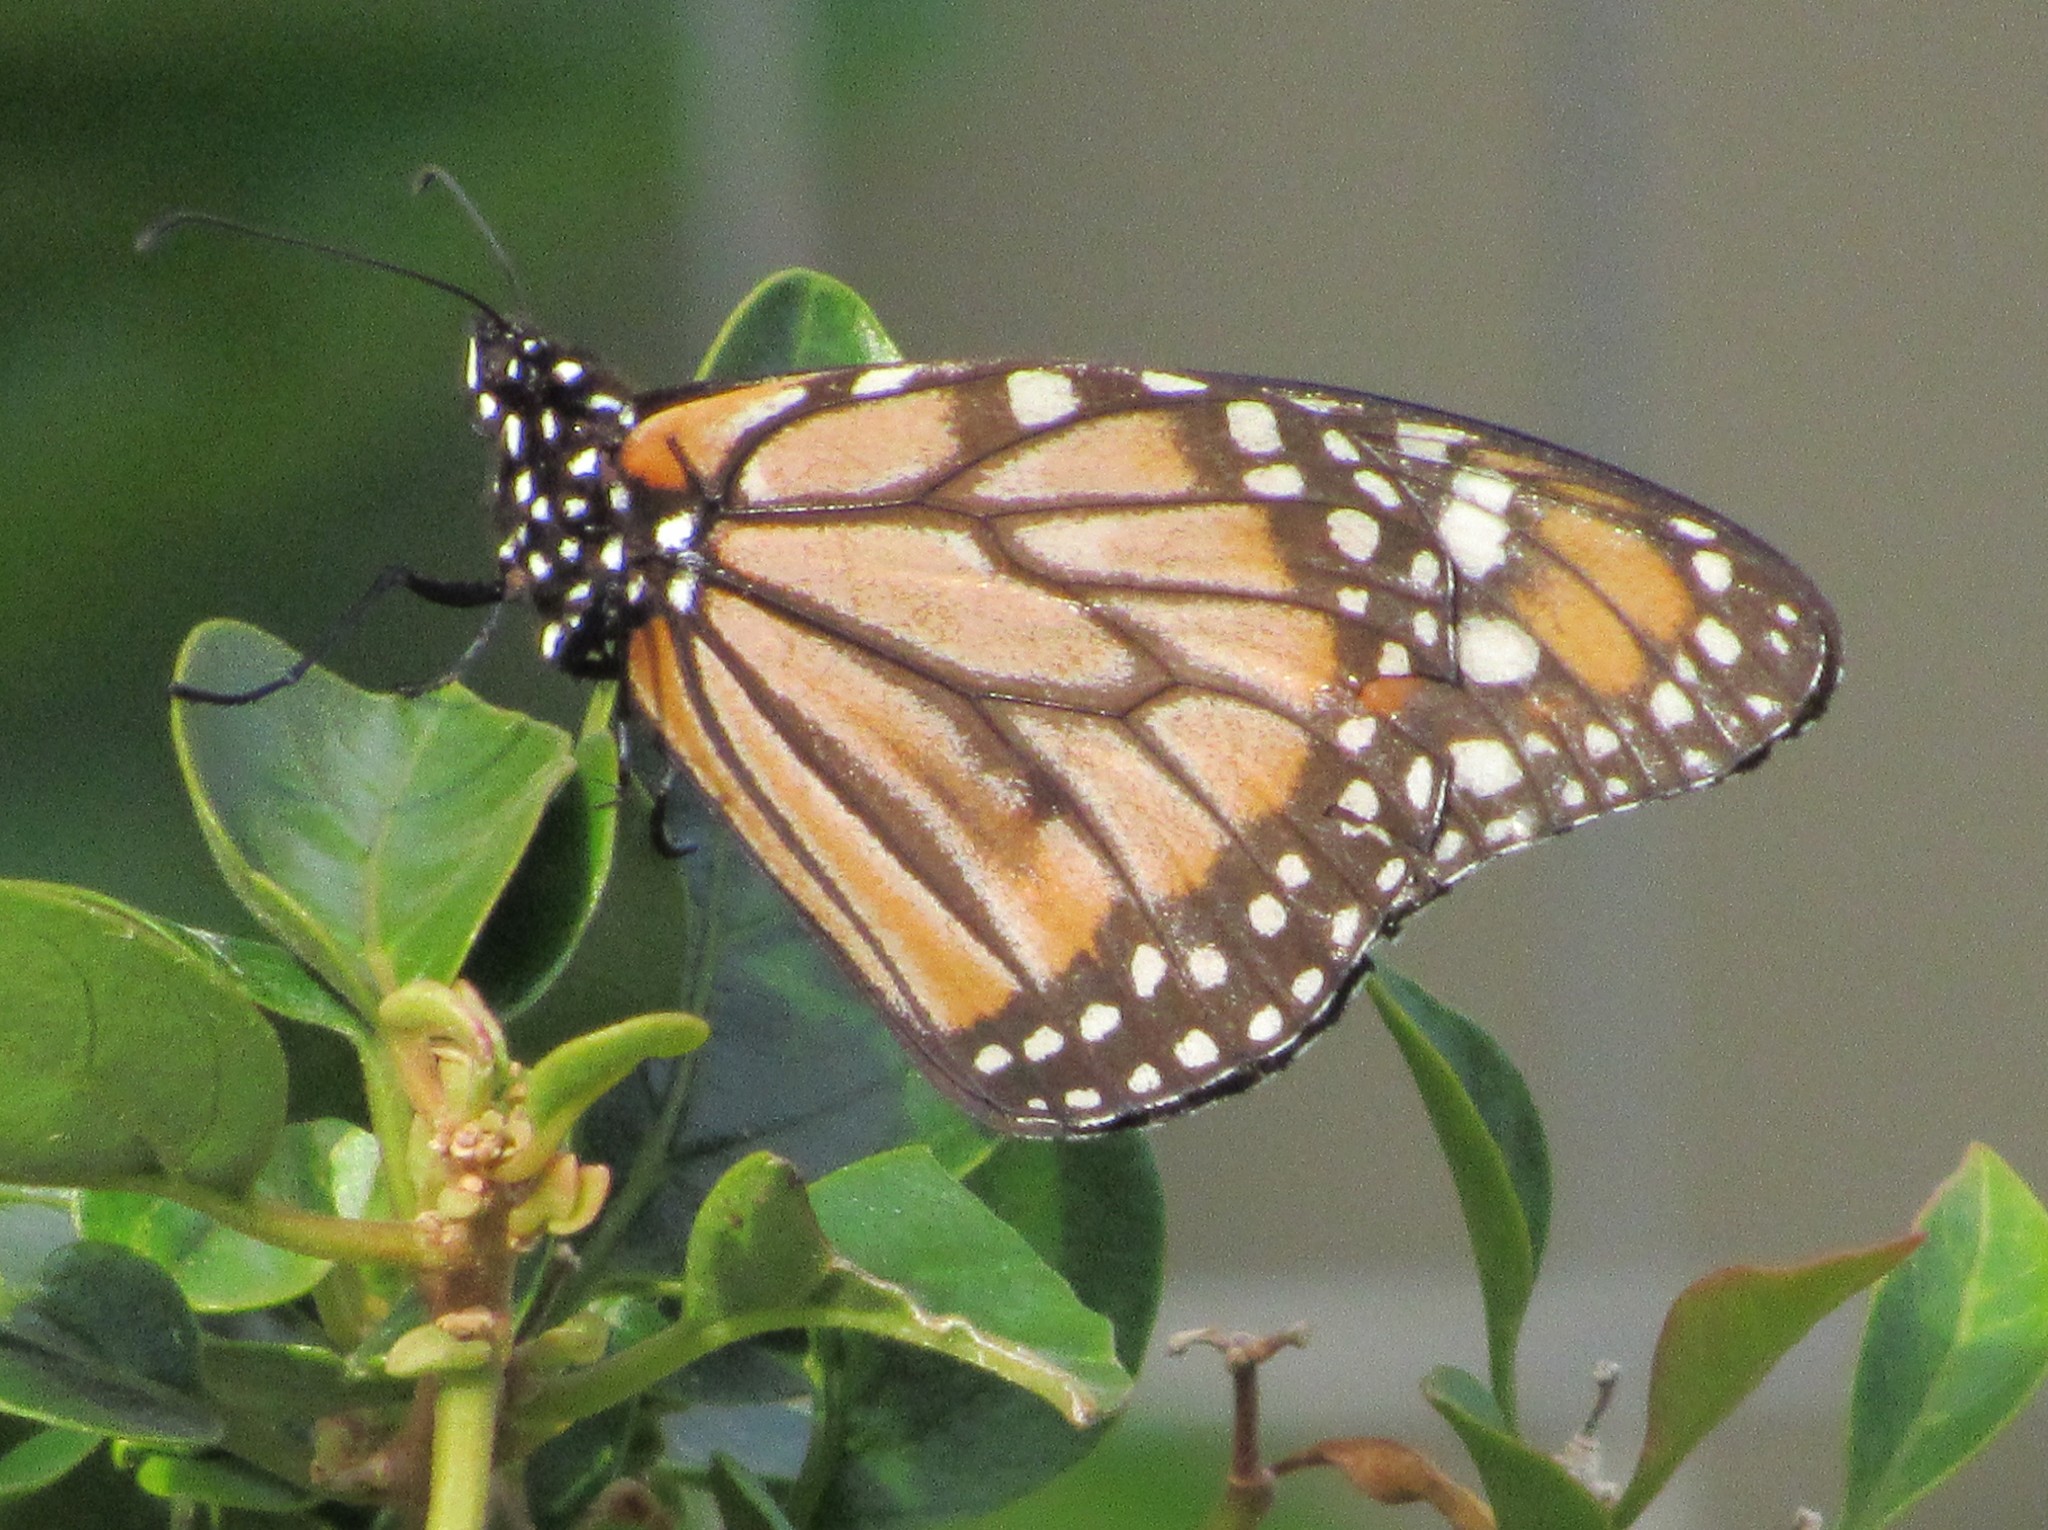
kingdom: Animalia
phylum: Arthropoda
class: Insecta
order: Lepidoptera
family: Nymphalidae
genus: Danaus
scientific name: Danaus erippus
